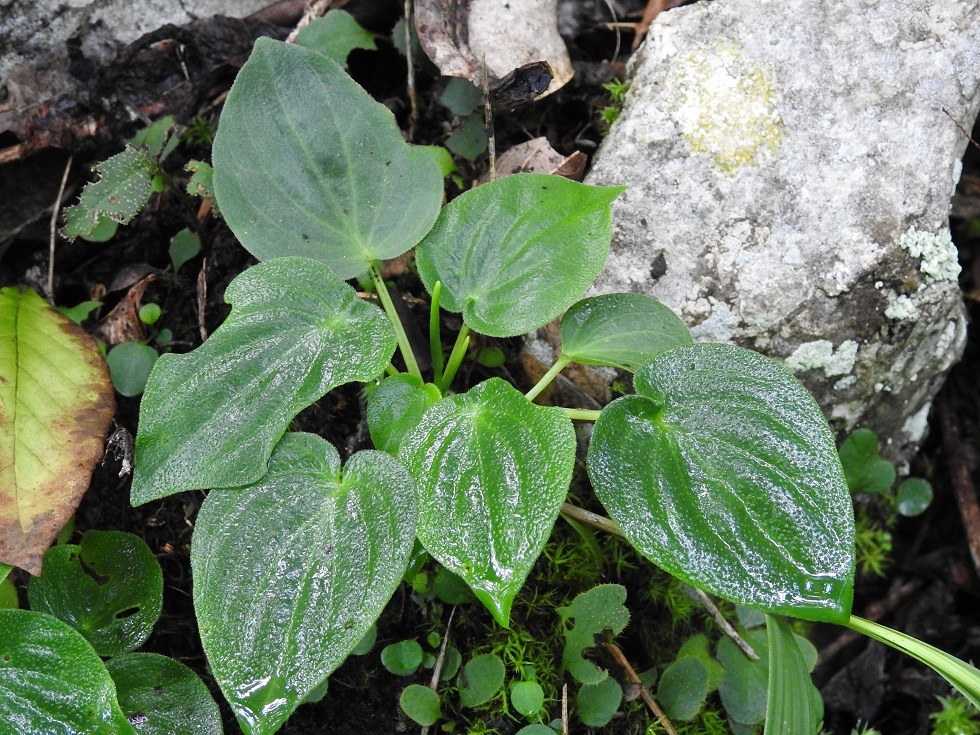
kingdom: Plantae
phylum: Tracheophyta
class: Magnoliopsida
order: Piperales
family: Piperaceae
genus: Peperomia
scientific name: Peperomia lanceolatopeltata
